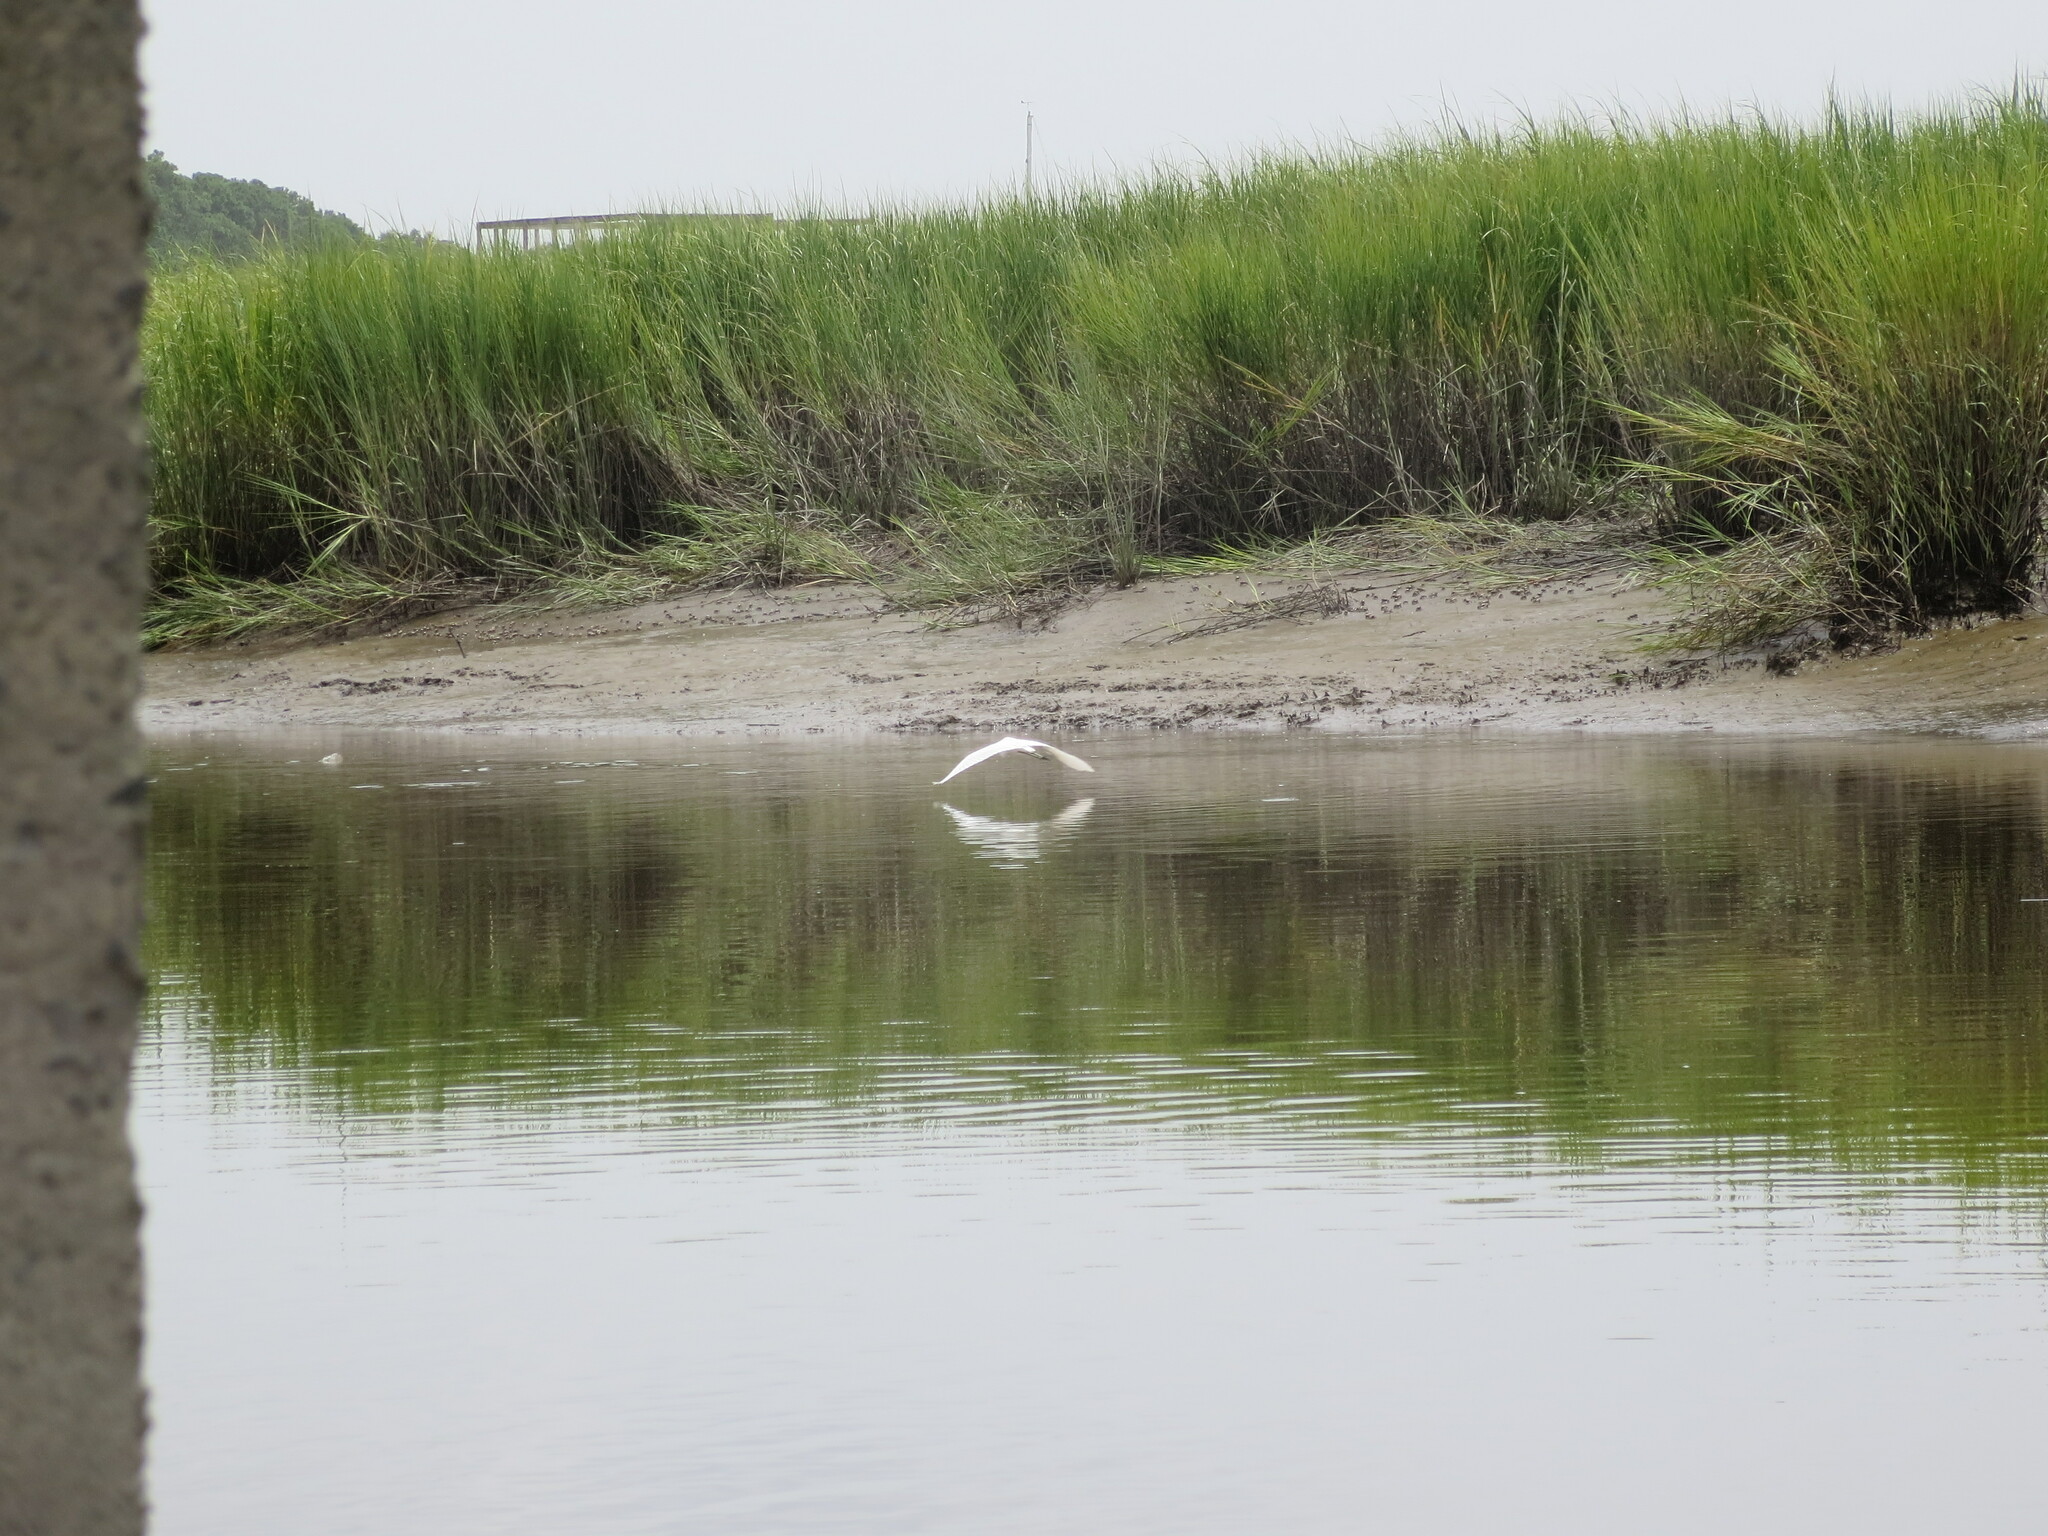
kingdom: Animalia
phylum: Chordata
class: Aves
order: Pelecaniformes
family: Ardeidae
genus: Ardea
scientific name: Ardea alba
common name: Great egret
